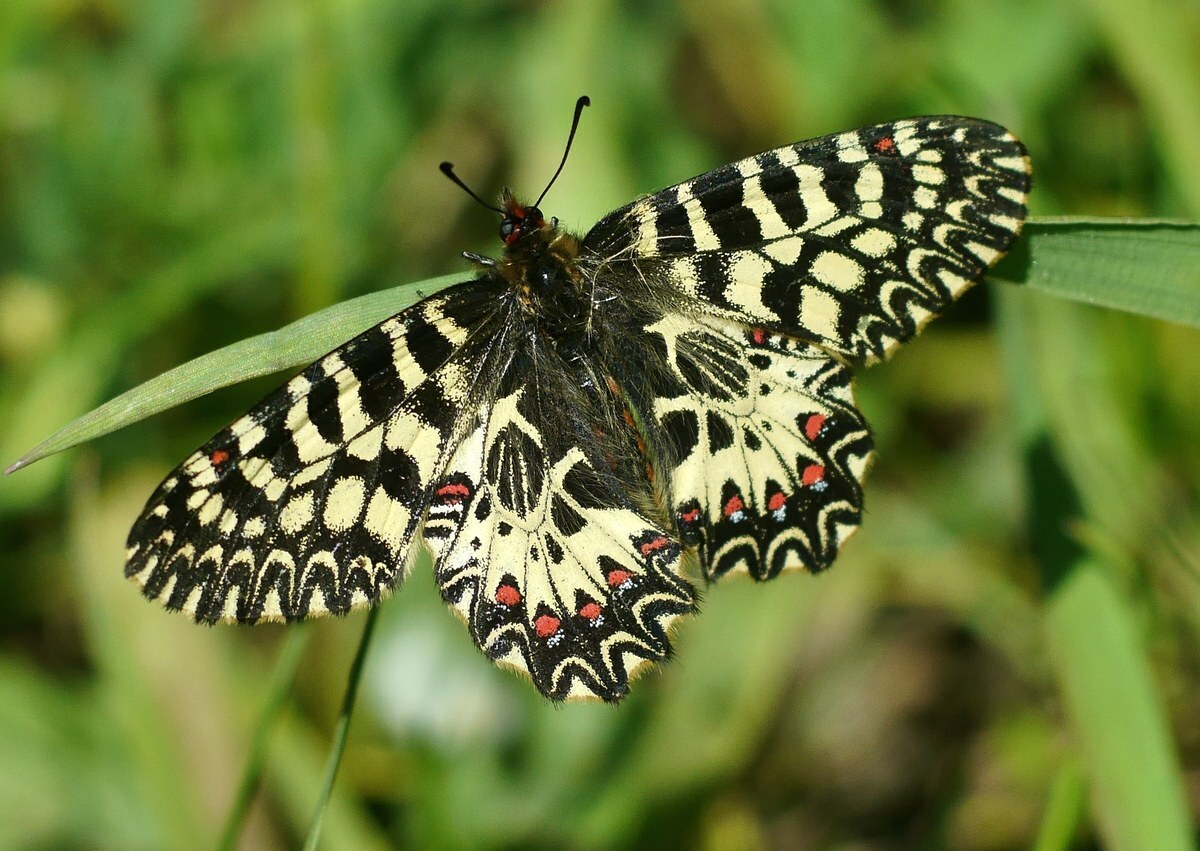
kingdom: Animalia
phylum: Arthropoda
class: Insecta
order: Lepidoptera
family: Papilionidae
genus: Zerynthia
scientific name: Zerynthia polyxena
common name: Southern festoon
